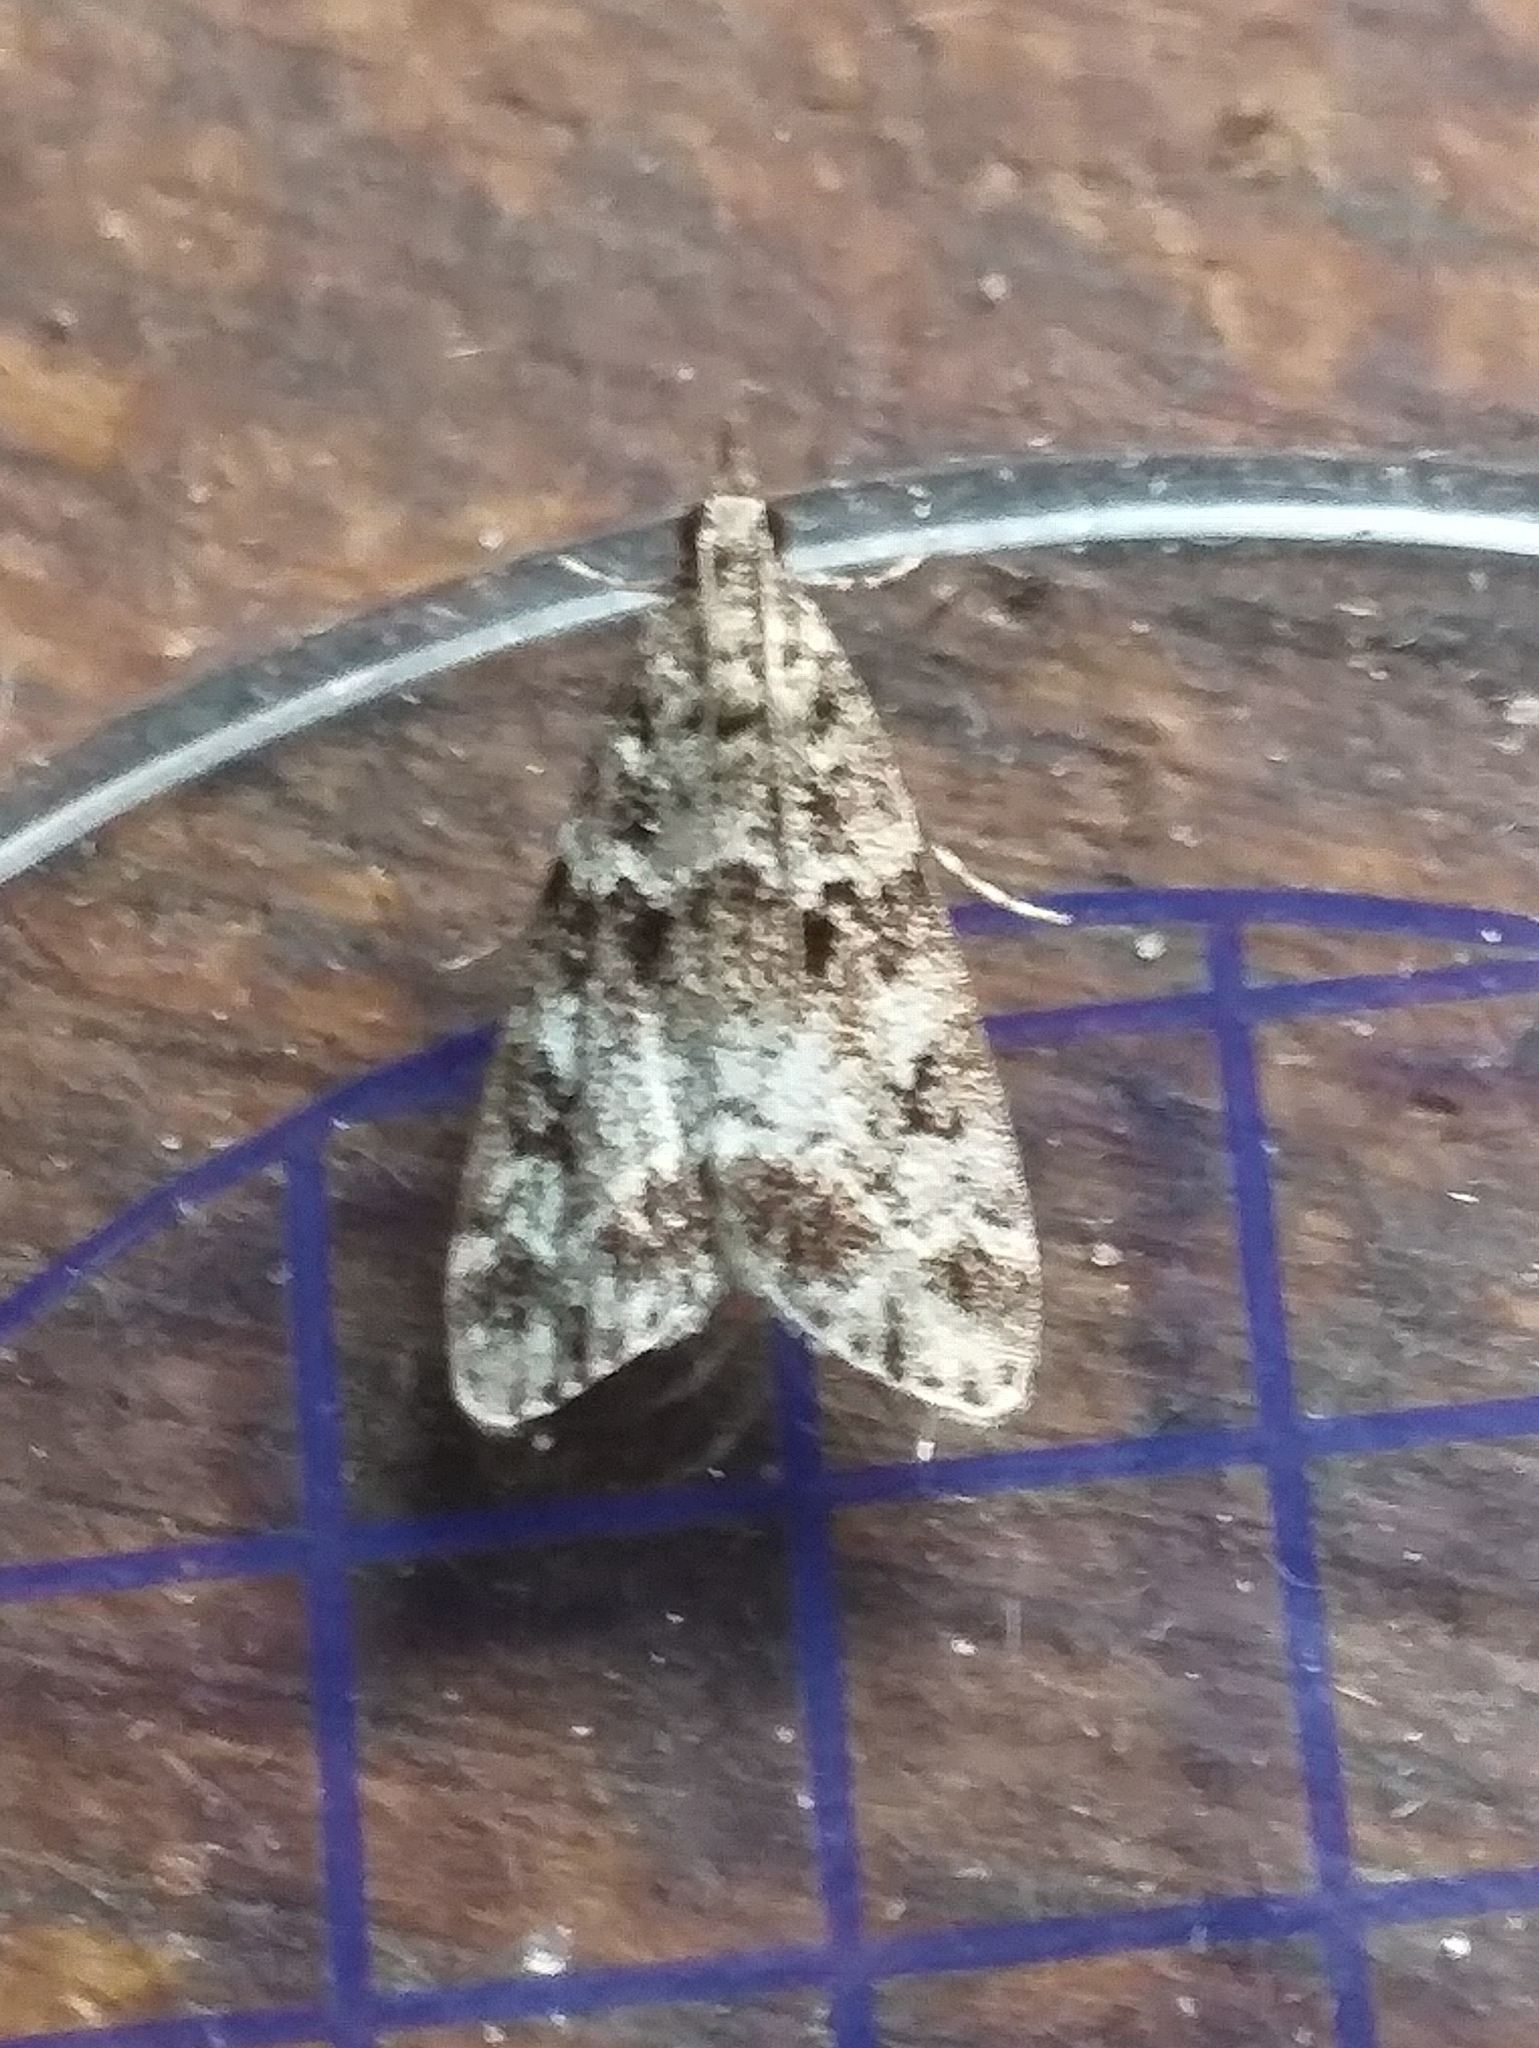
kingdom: Animalia
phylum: Arthropoda
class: Insecta
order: Lepidoptera
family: Crambidae
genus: Eudonia
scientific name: Eudonia lacustrata
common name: Little grey
